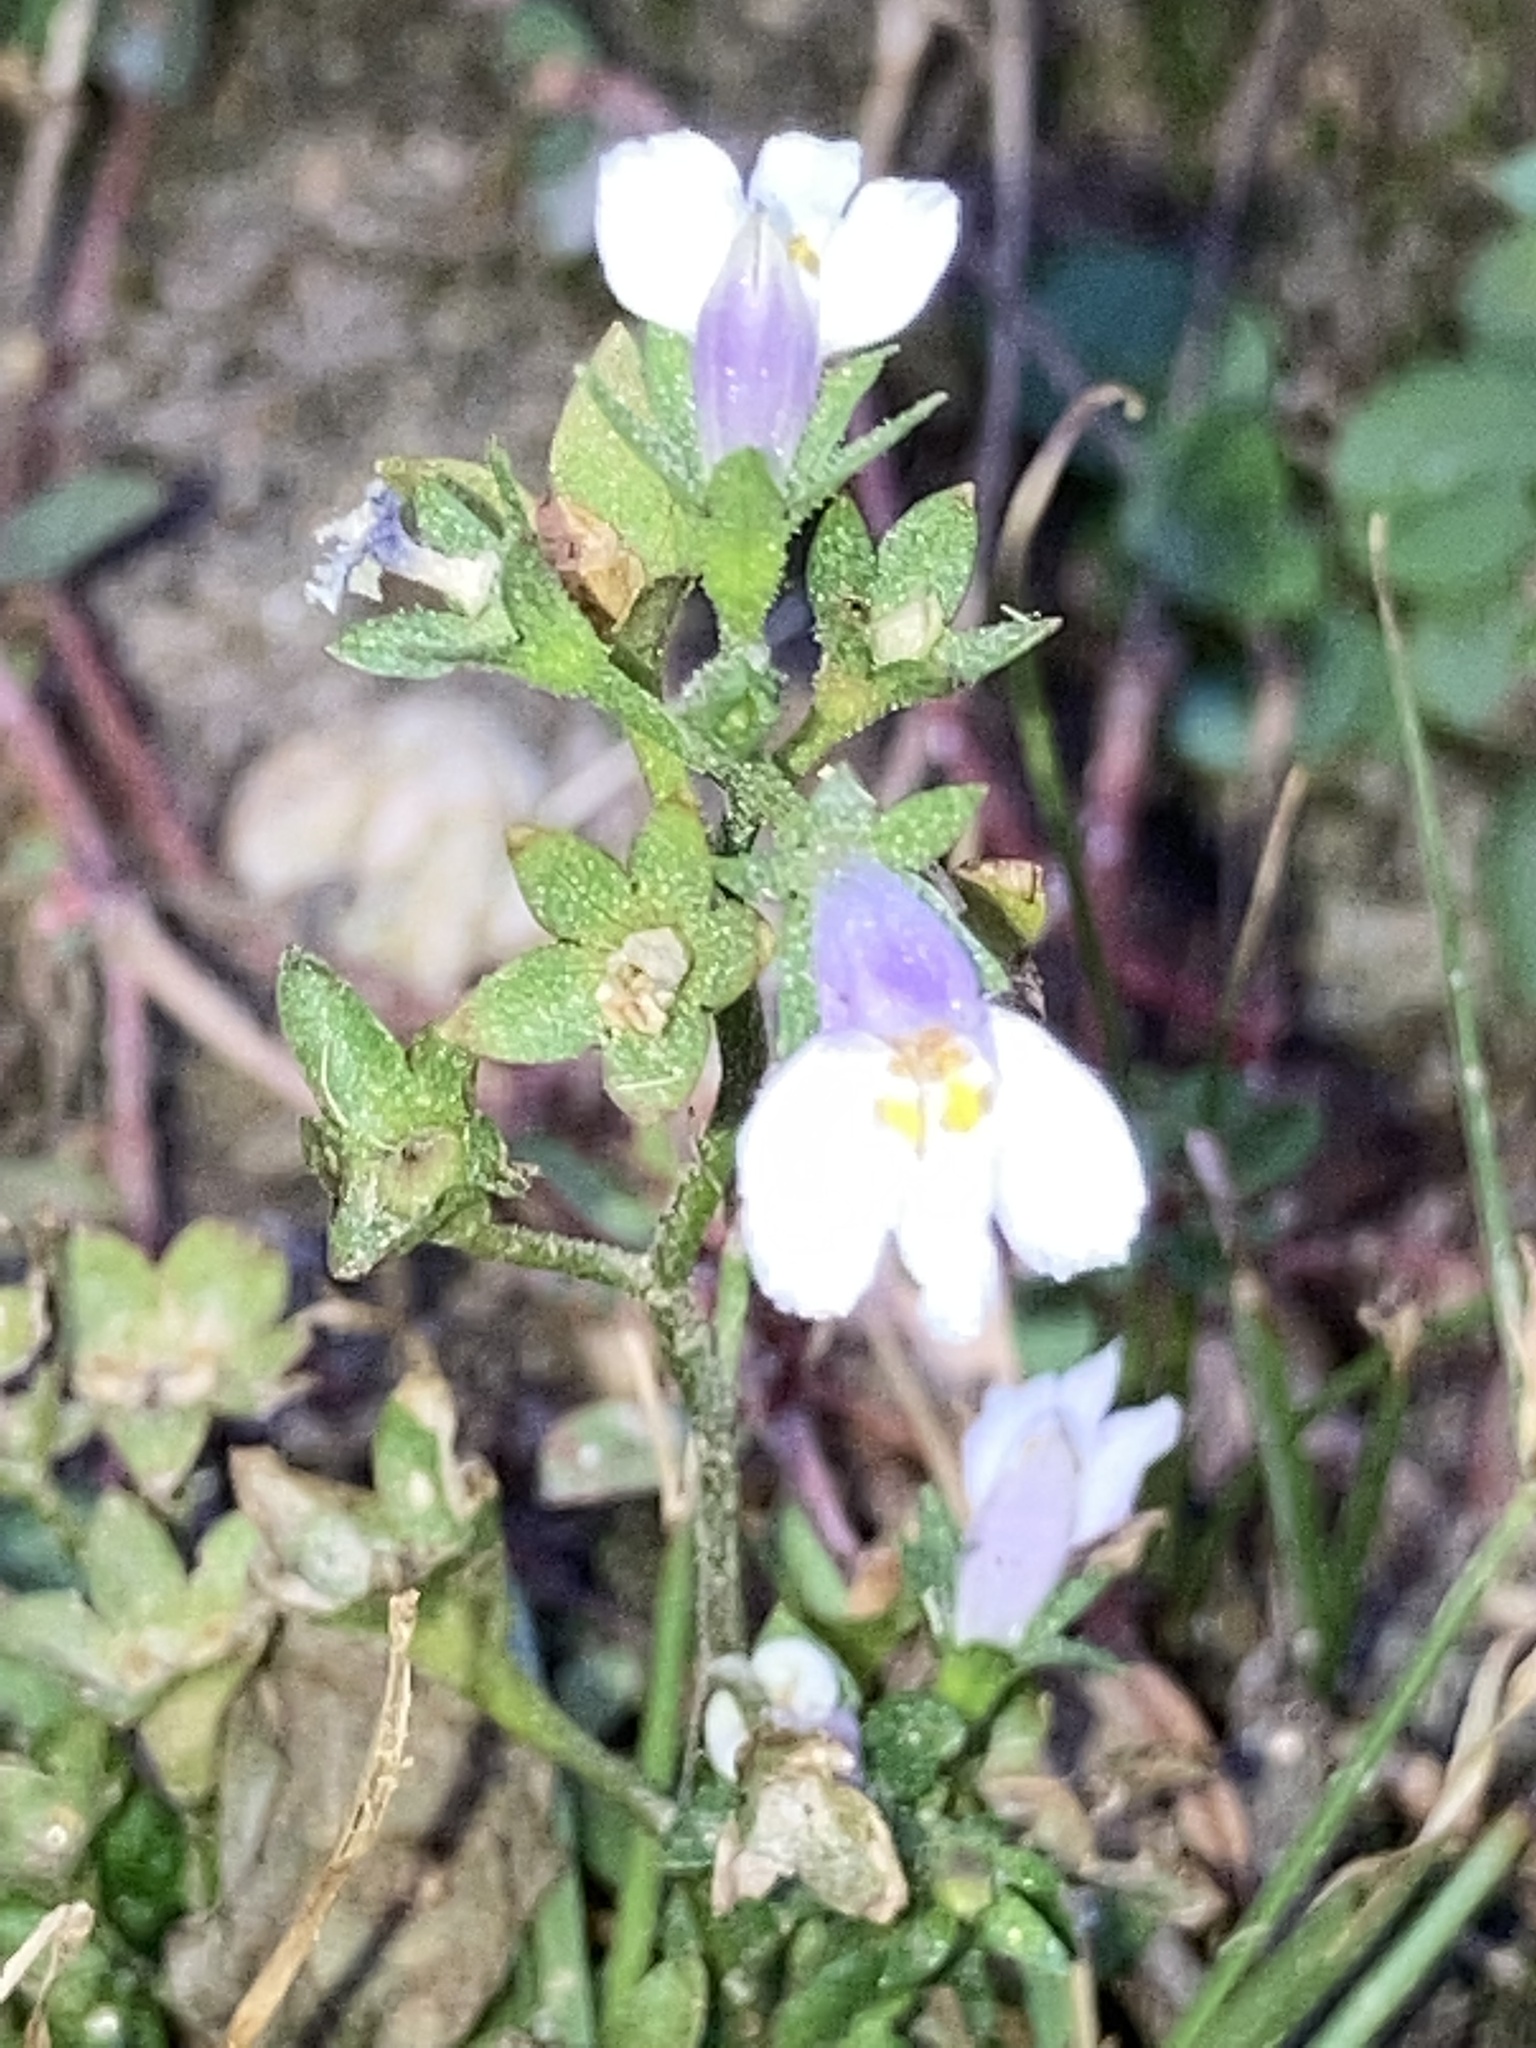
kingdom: Plantae
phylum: Tracheophyta
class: Magnoliopsida
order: Lamiales
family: Mazaceae
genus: Mazus
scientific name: Mazus pumilus
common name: Japanese mazus
